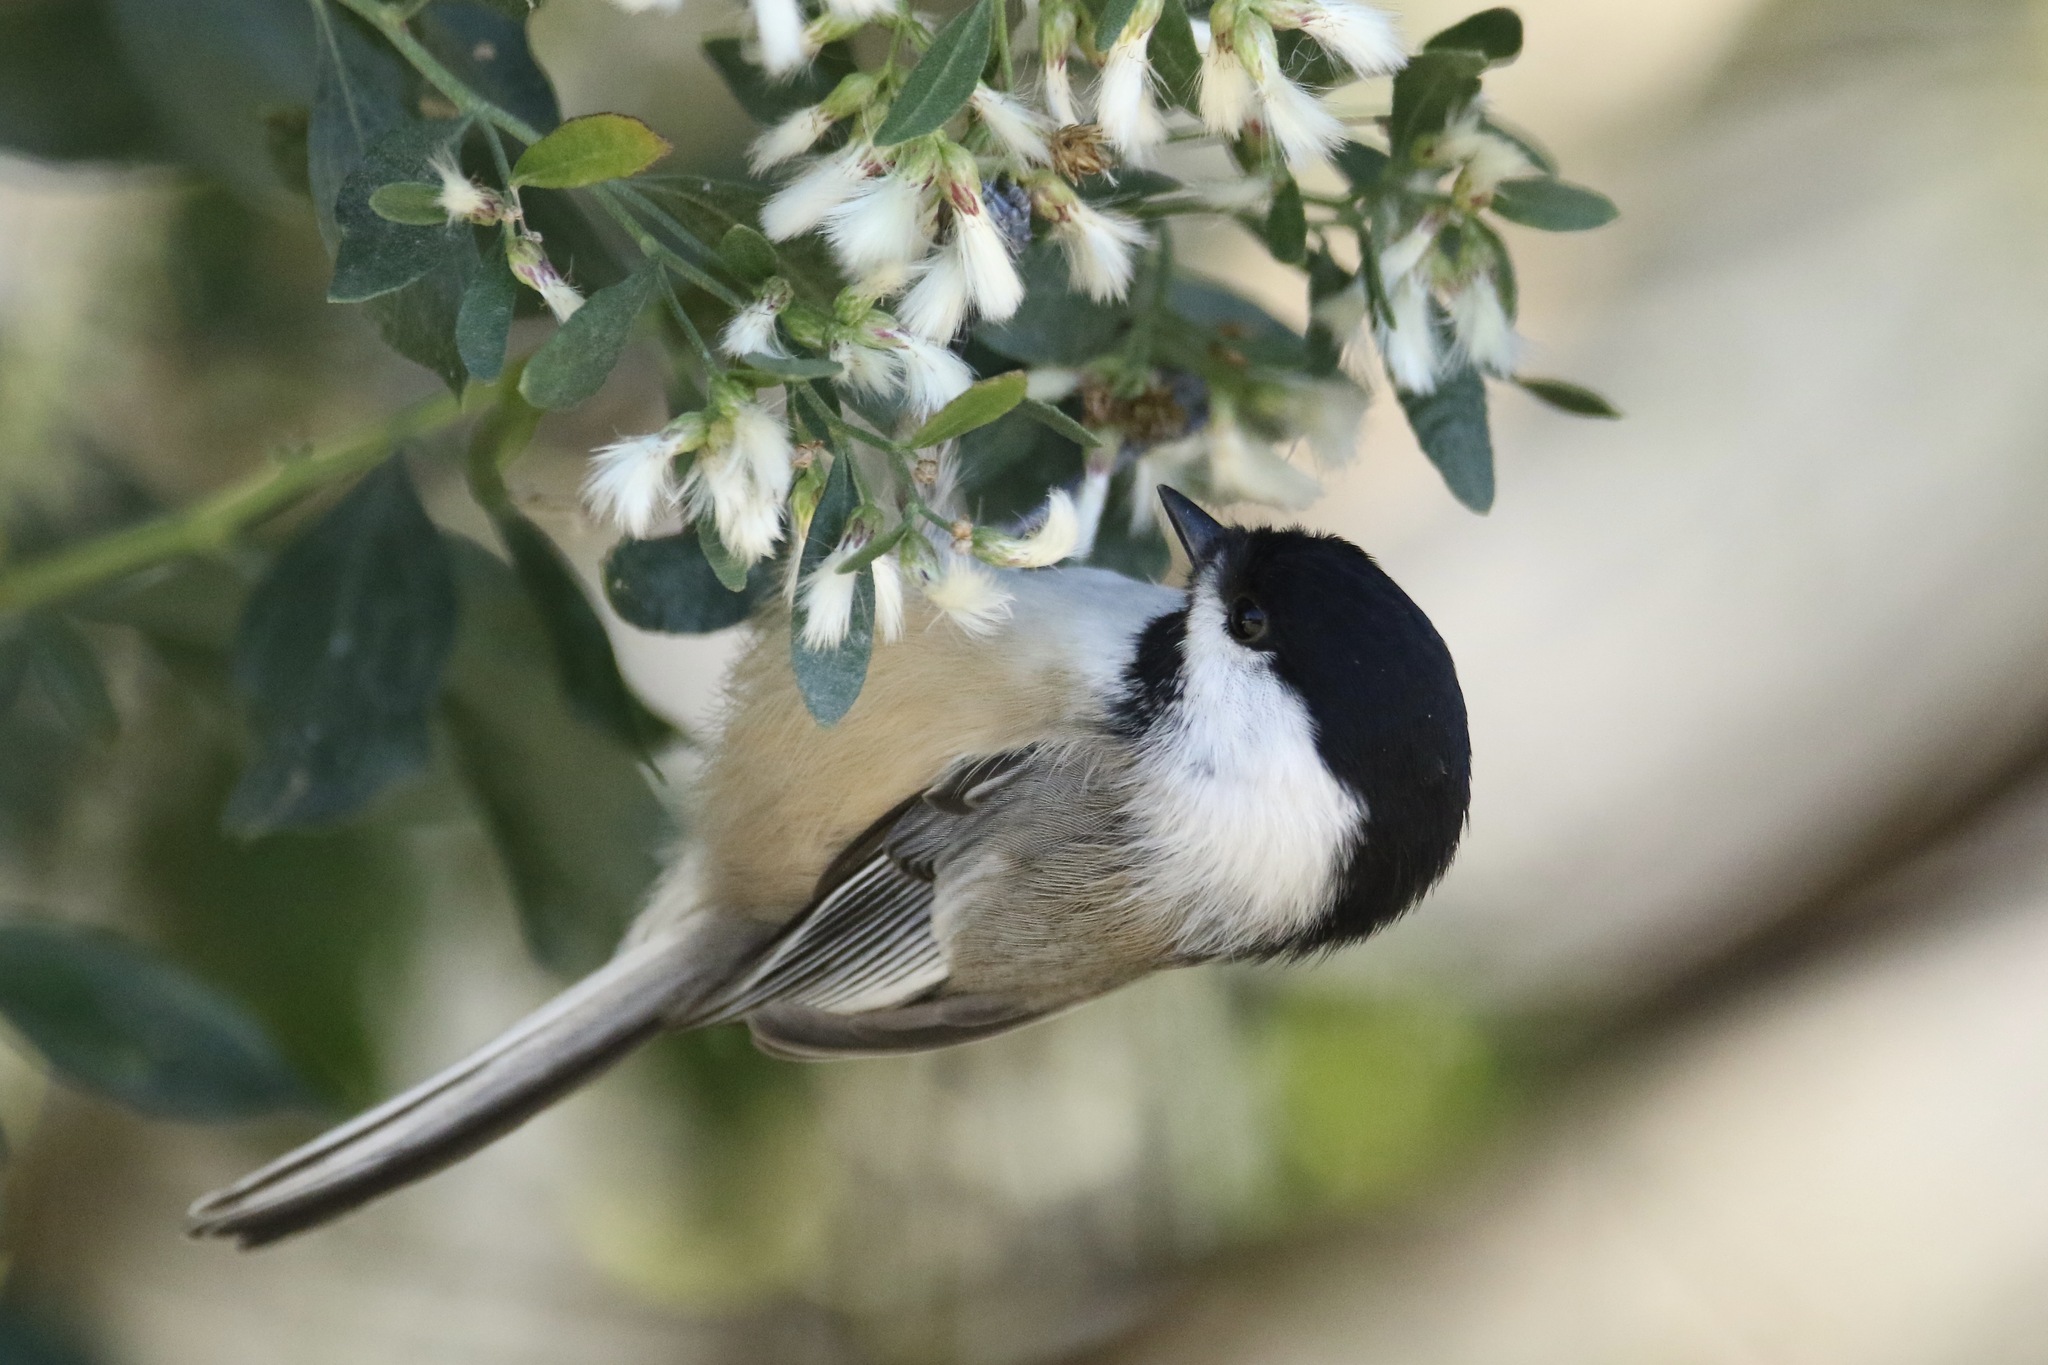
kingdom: Animalia
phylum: Chordata
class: Aves
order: Passeriformes
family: Paridae
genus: Poecile
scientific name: Poecile atricapillus
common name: Black-capped chickadee
